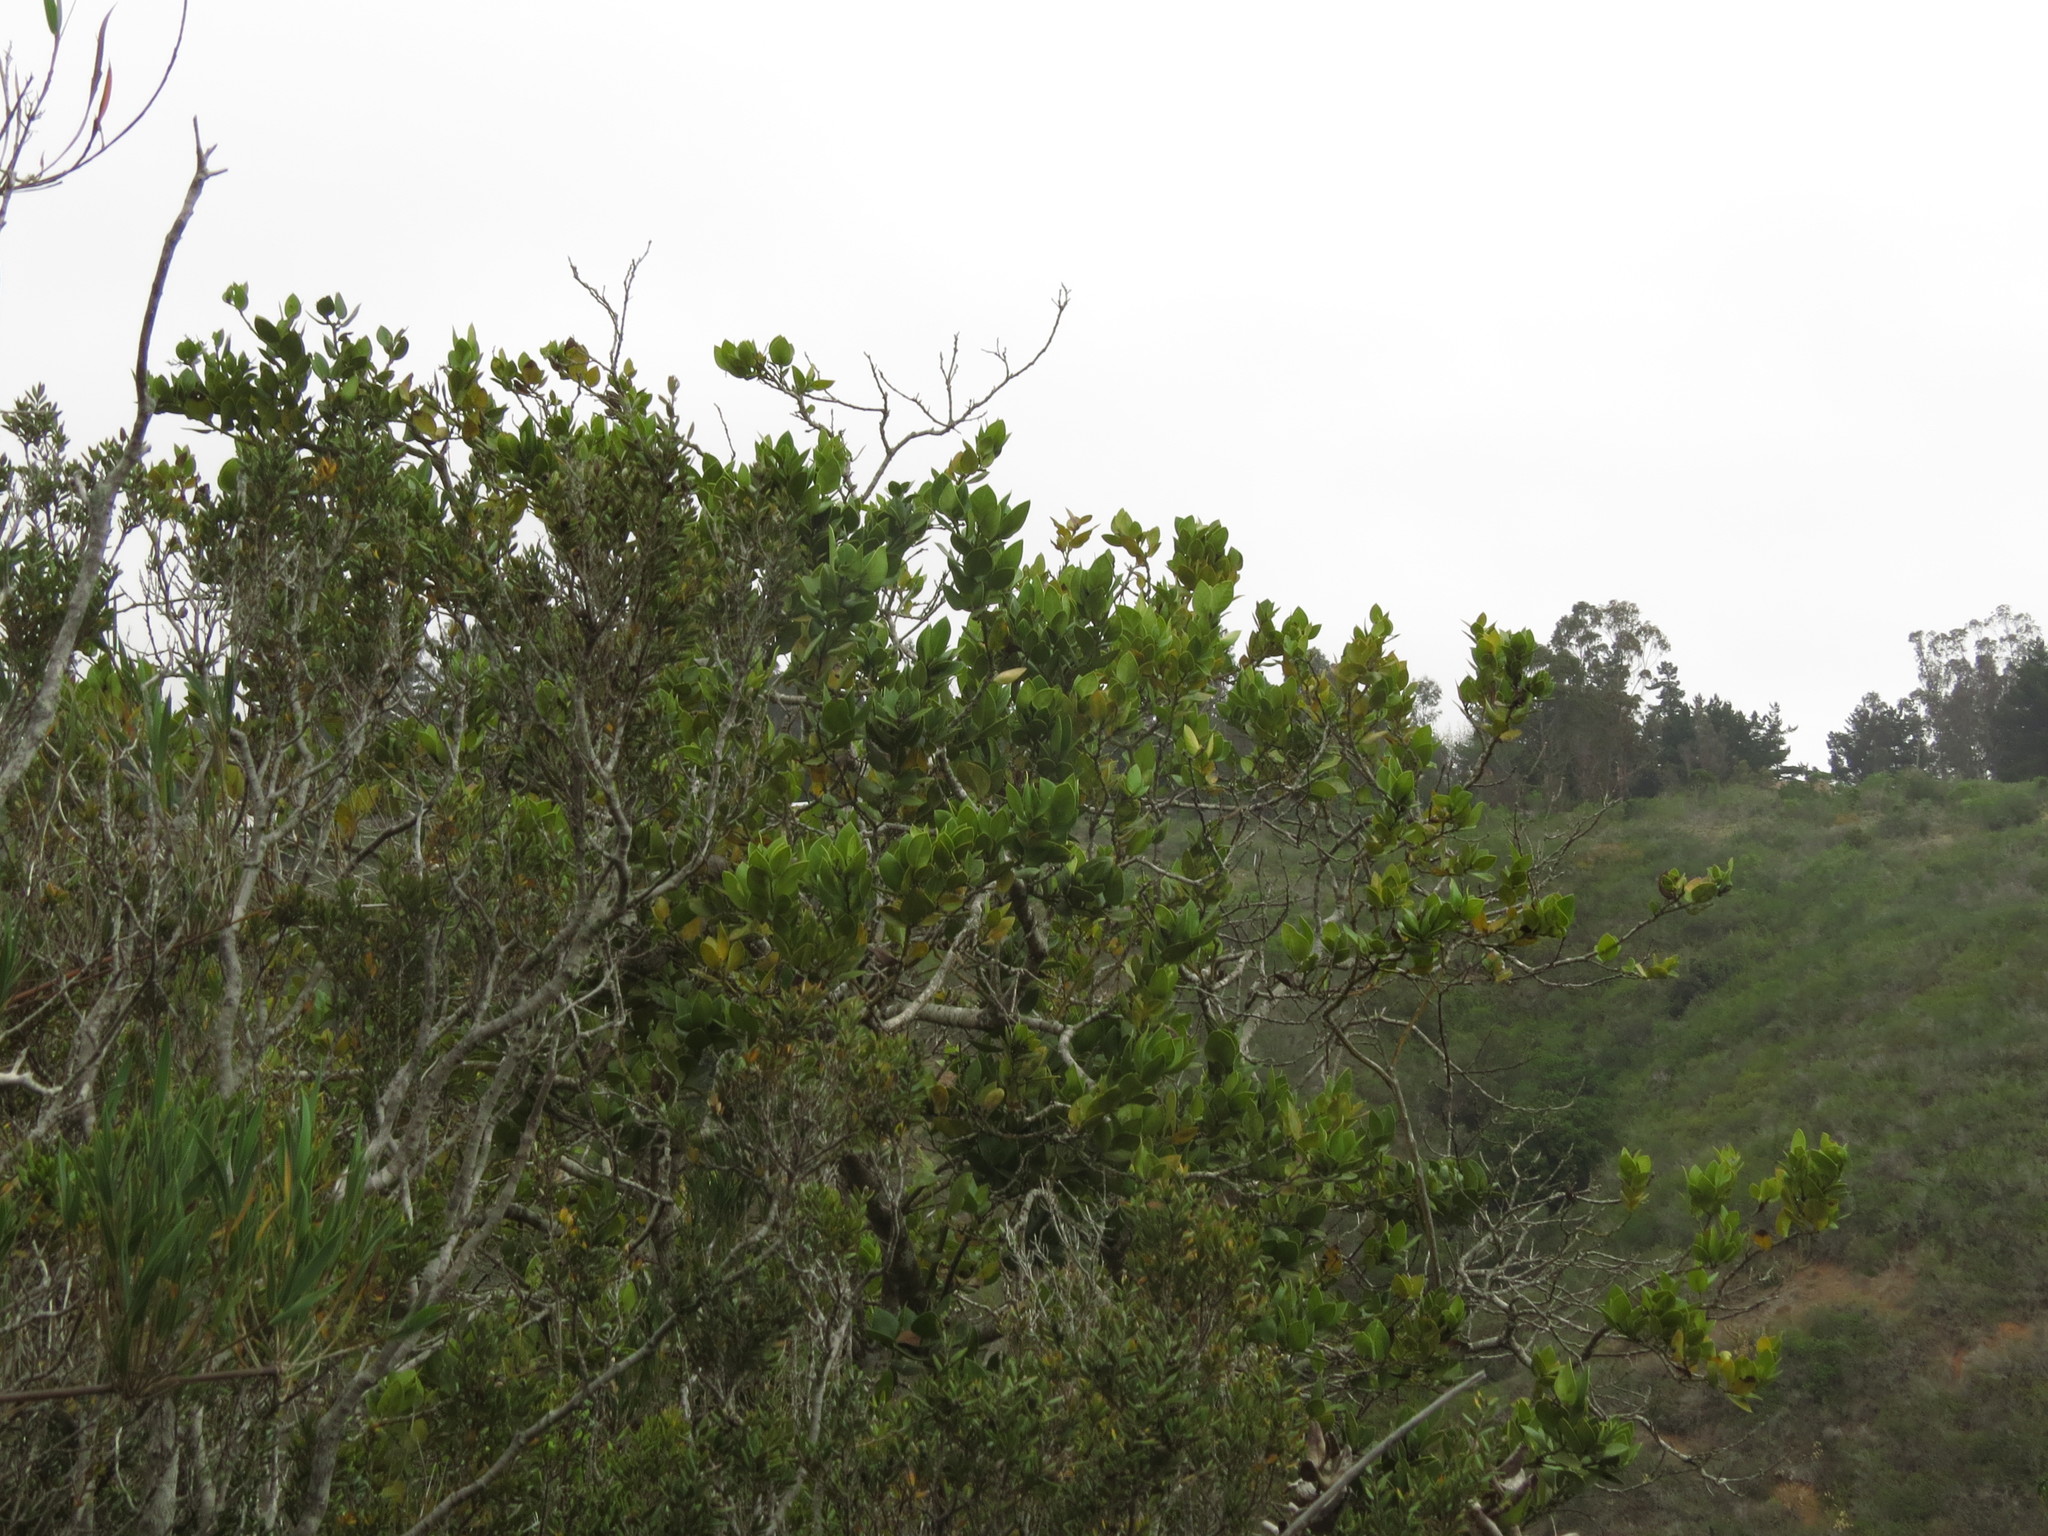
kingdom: Plantae
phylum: Tracheophyta
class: Magnoliopsida
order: Cardiopteridales
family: Cardiopteridaceae
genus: Citronella
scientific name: Citronella mucronata
